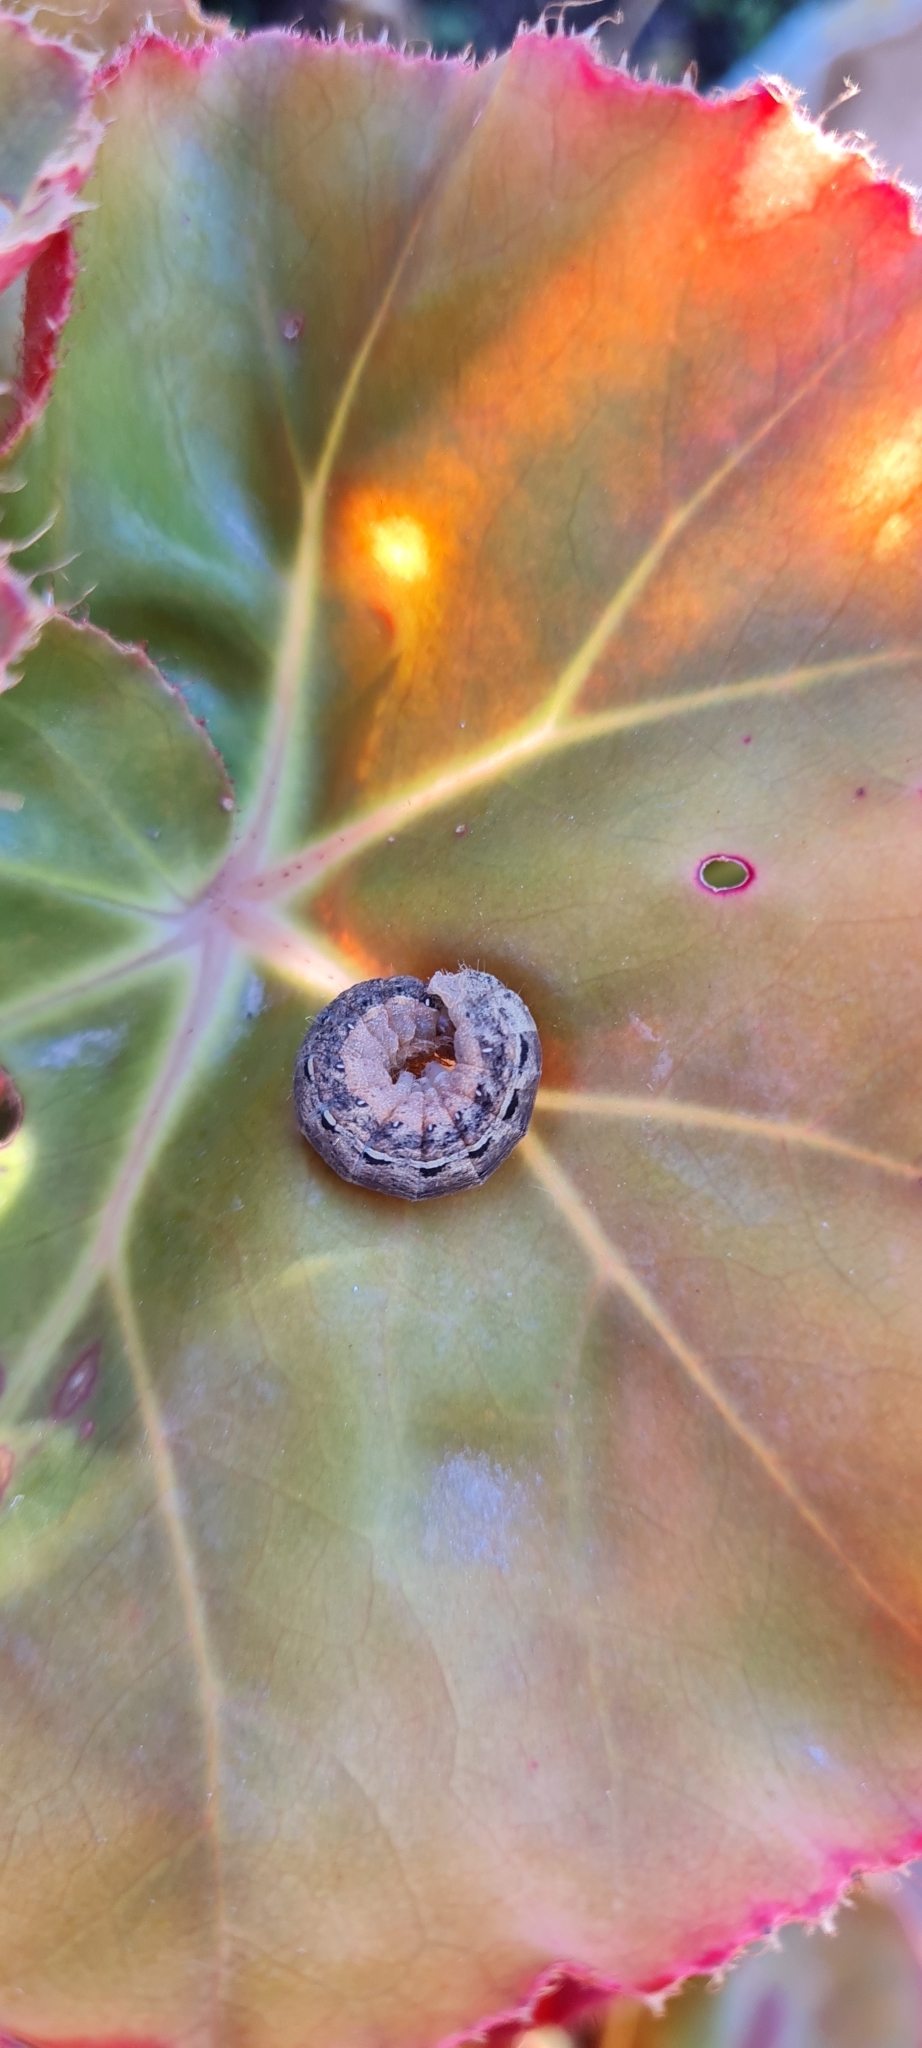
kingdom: Animalia
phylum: Arthropoda
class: Insecta
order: Lepidoptera
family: Noctuidae
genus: Noctua
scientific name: Noctua pronuba
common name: Large yellow underwing
